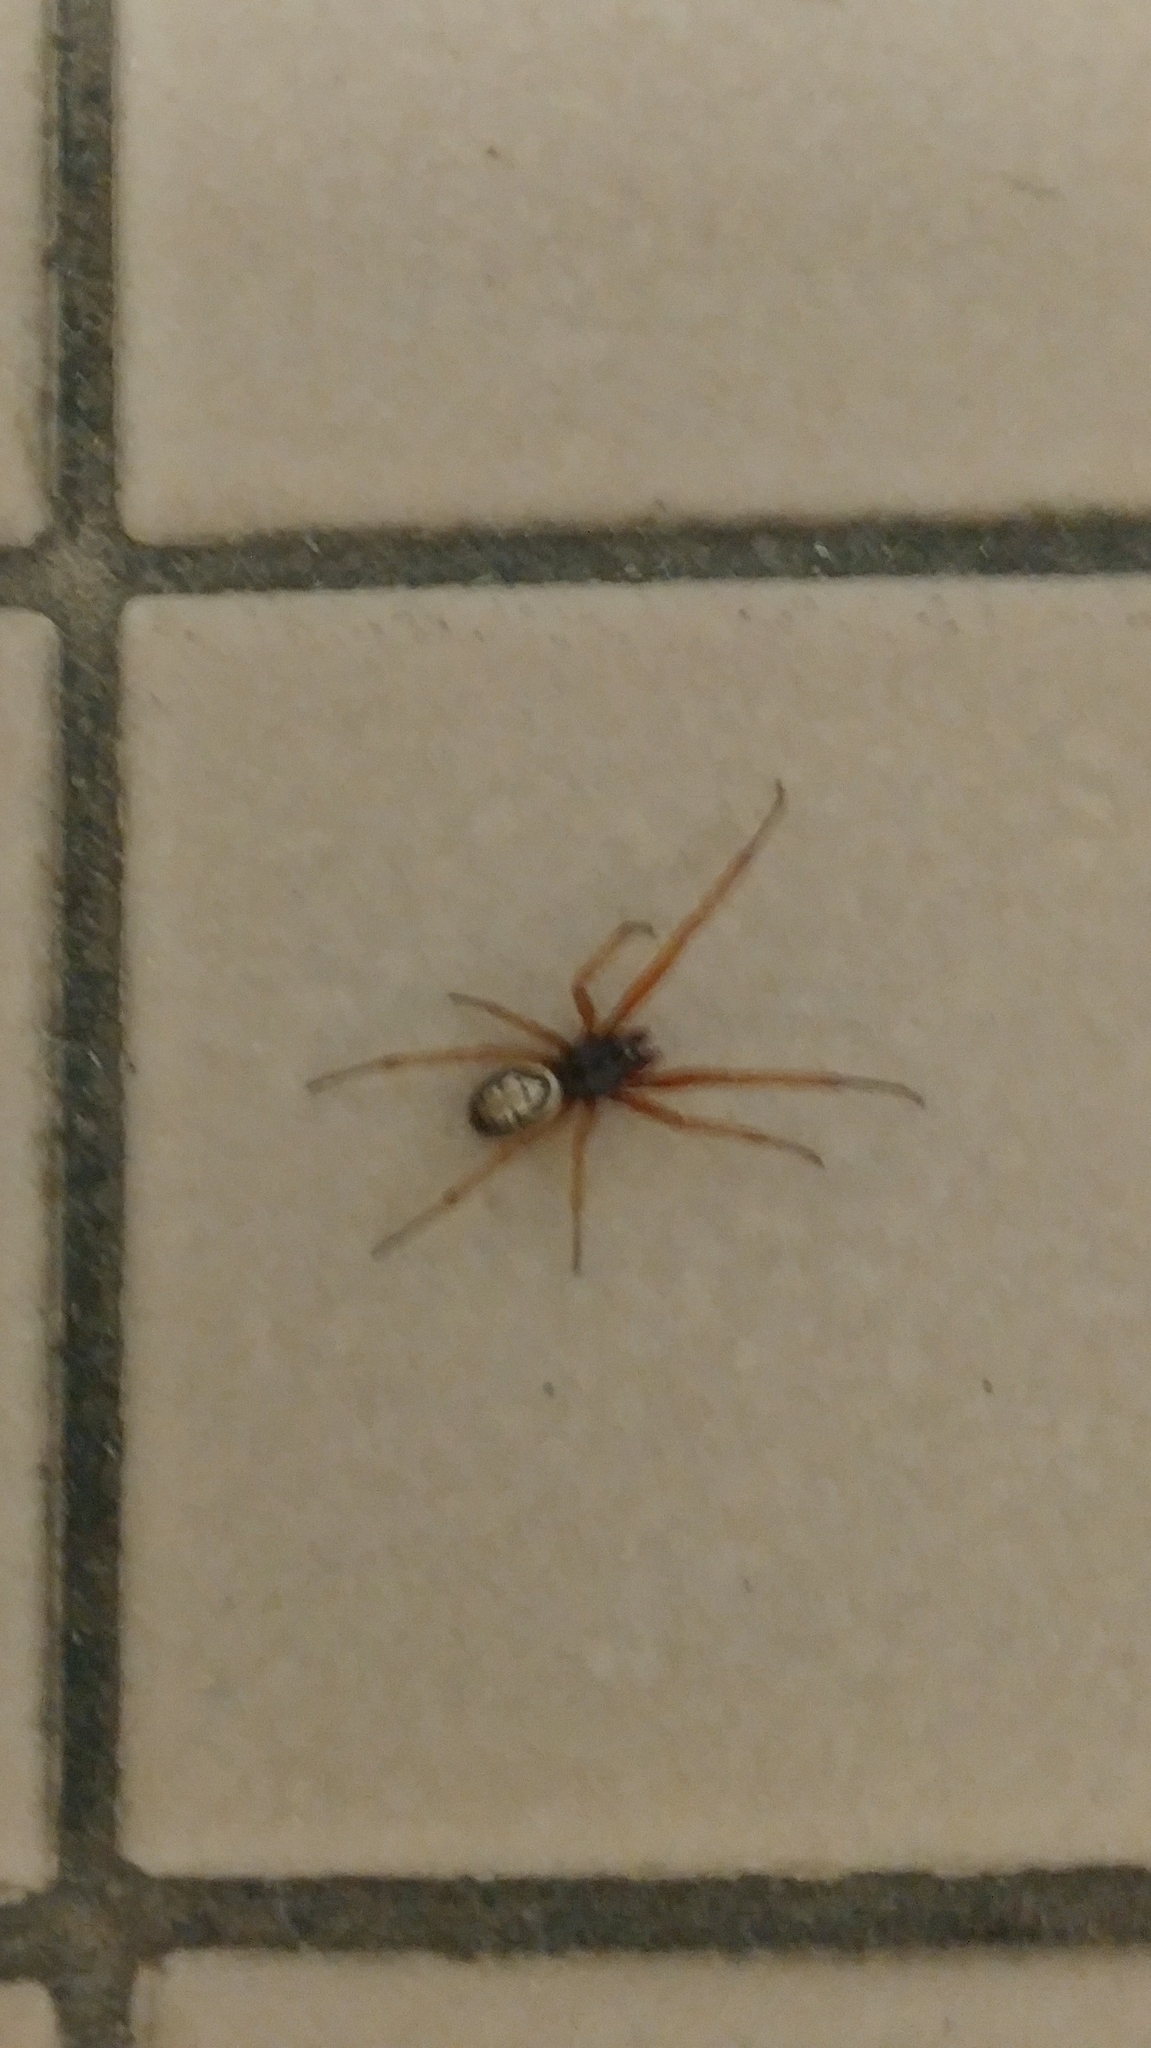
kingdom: Animalia
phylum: Arthropoda
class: Arachnida
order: Araneae
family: Theridiidae
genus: Steatoda
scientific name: Steatoda nobilis
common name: Cobweb weaver
